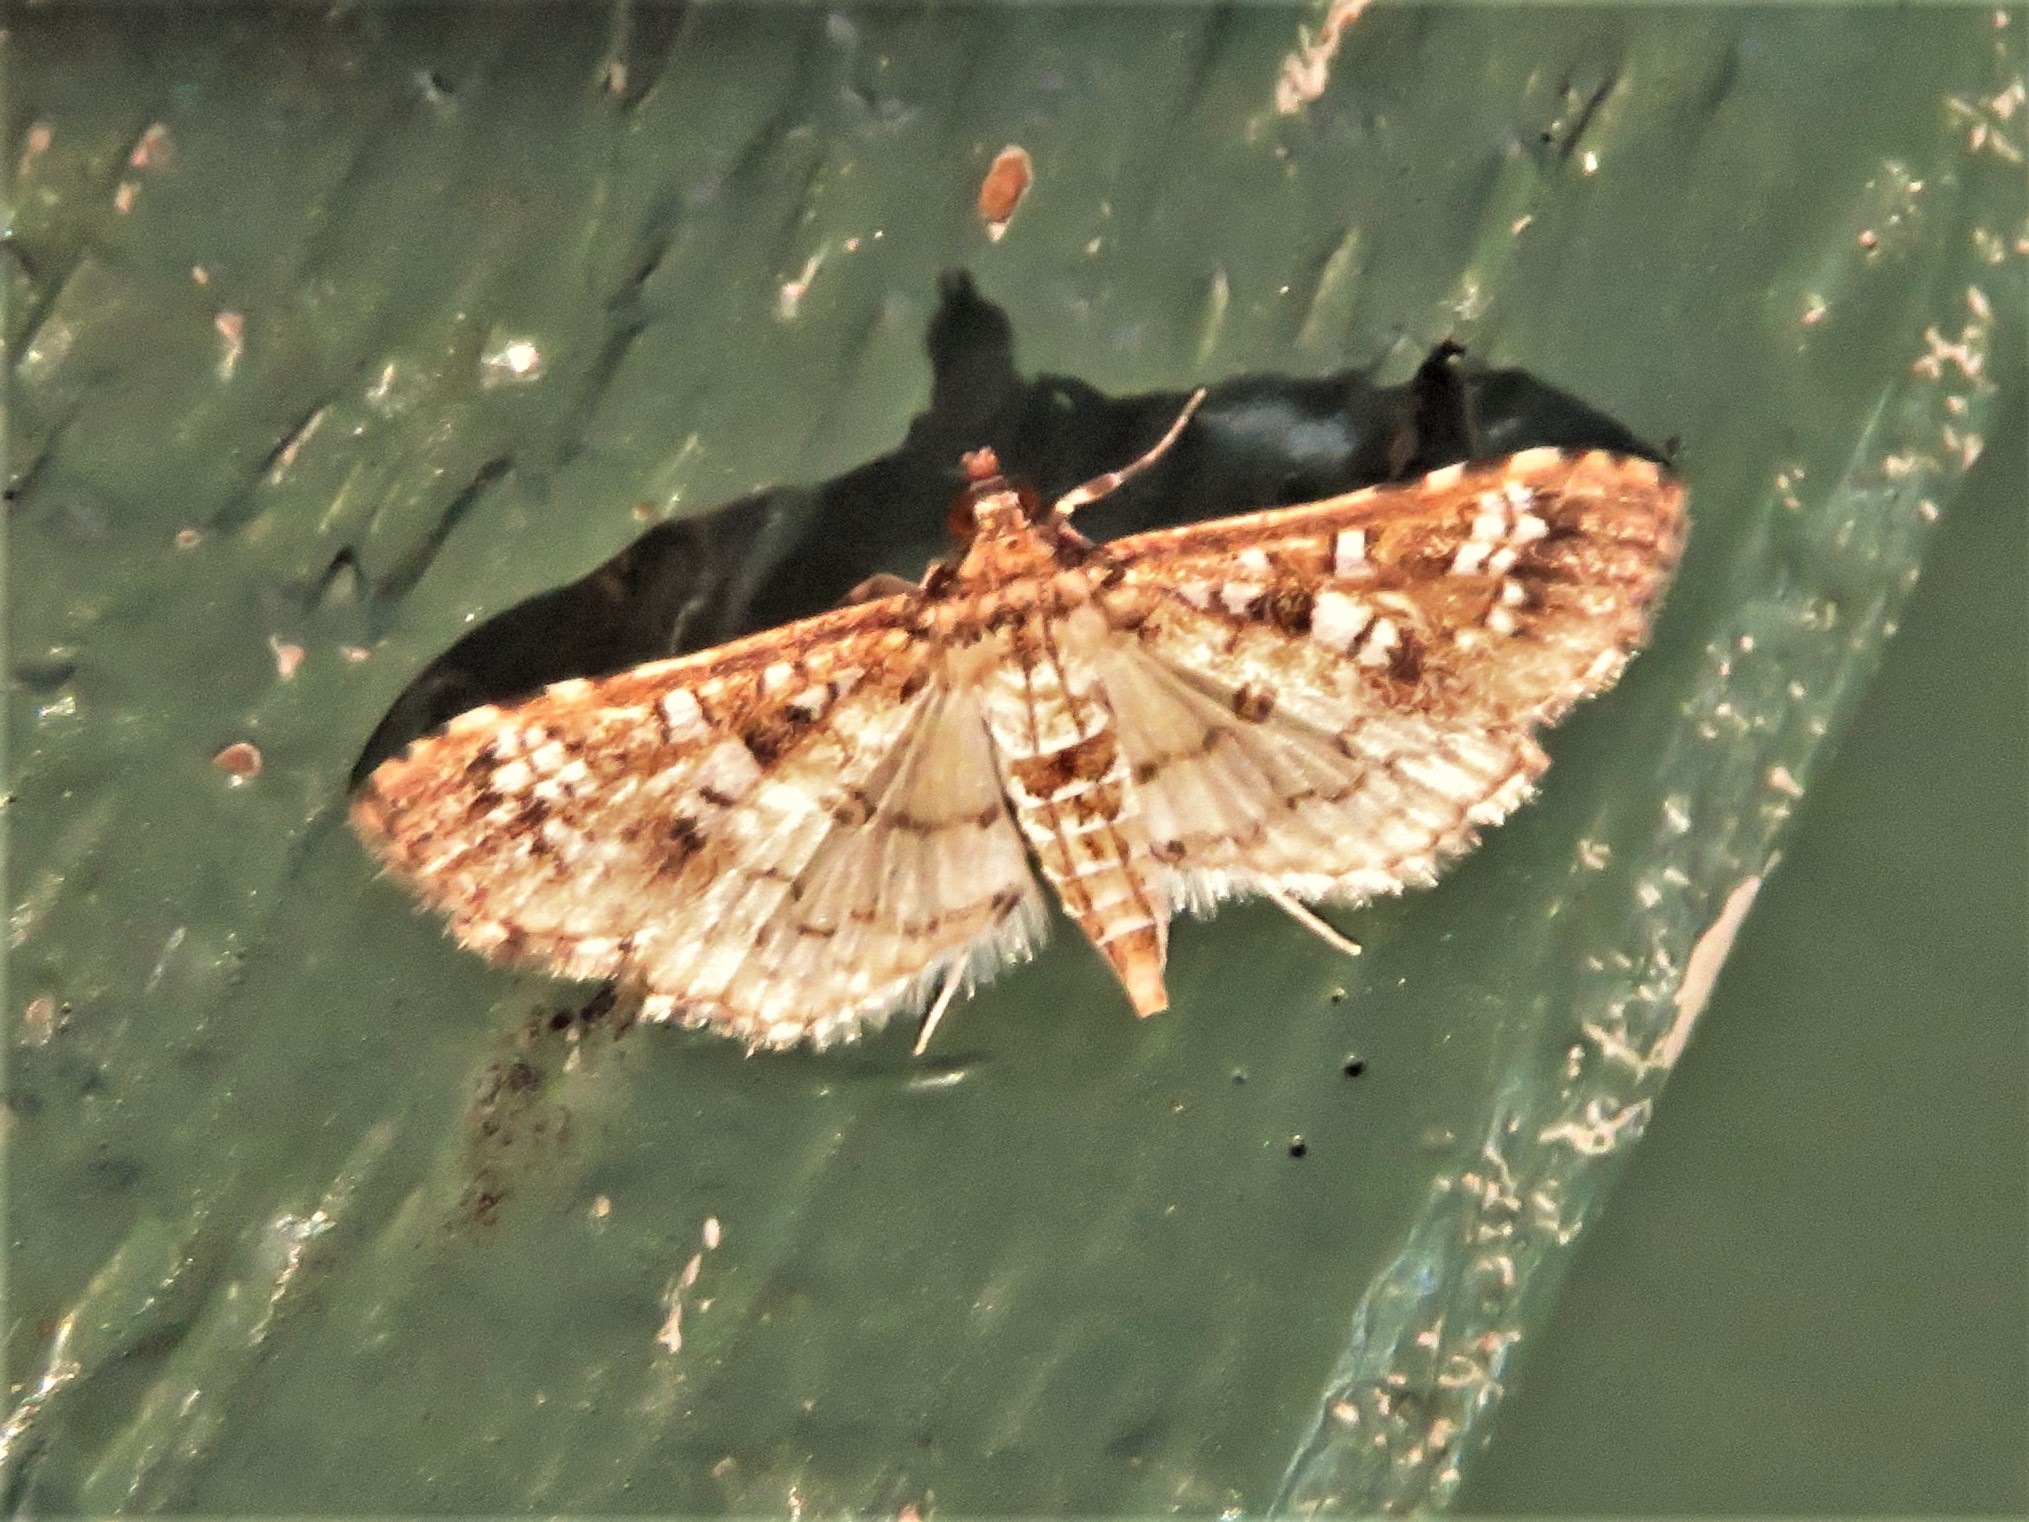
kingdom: Animalia
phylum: Arthropoda
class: Insecta
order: Lepidoptera
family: Crambidae
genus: Samea
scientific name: Samea multiplicalis
